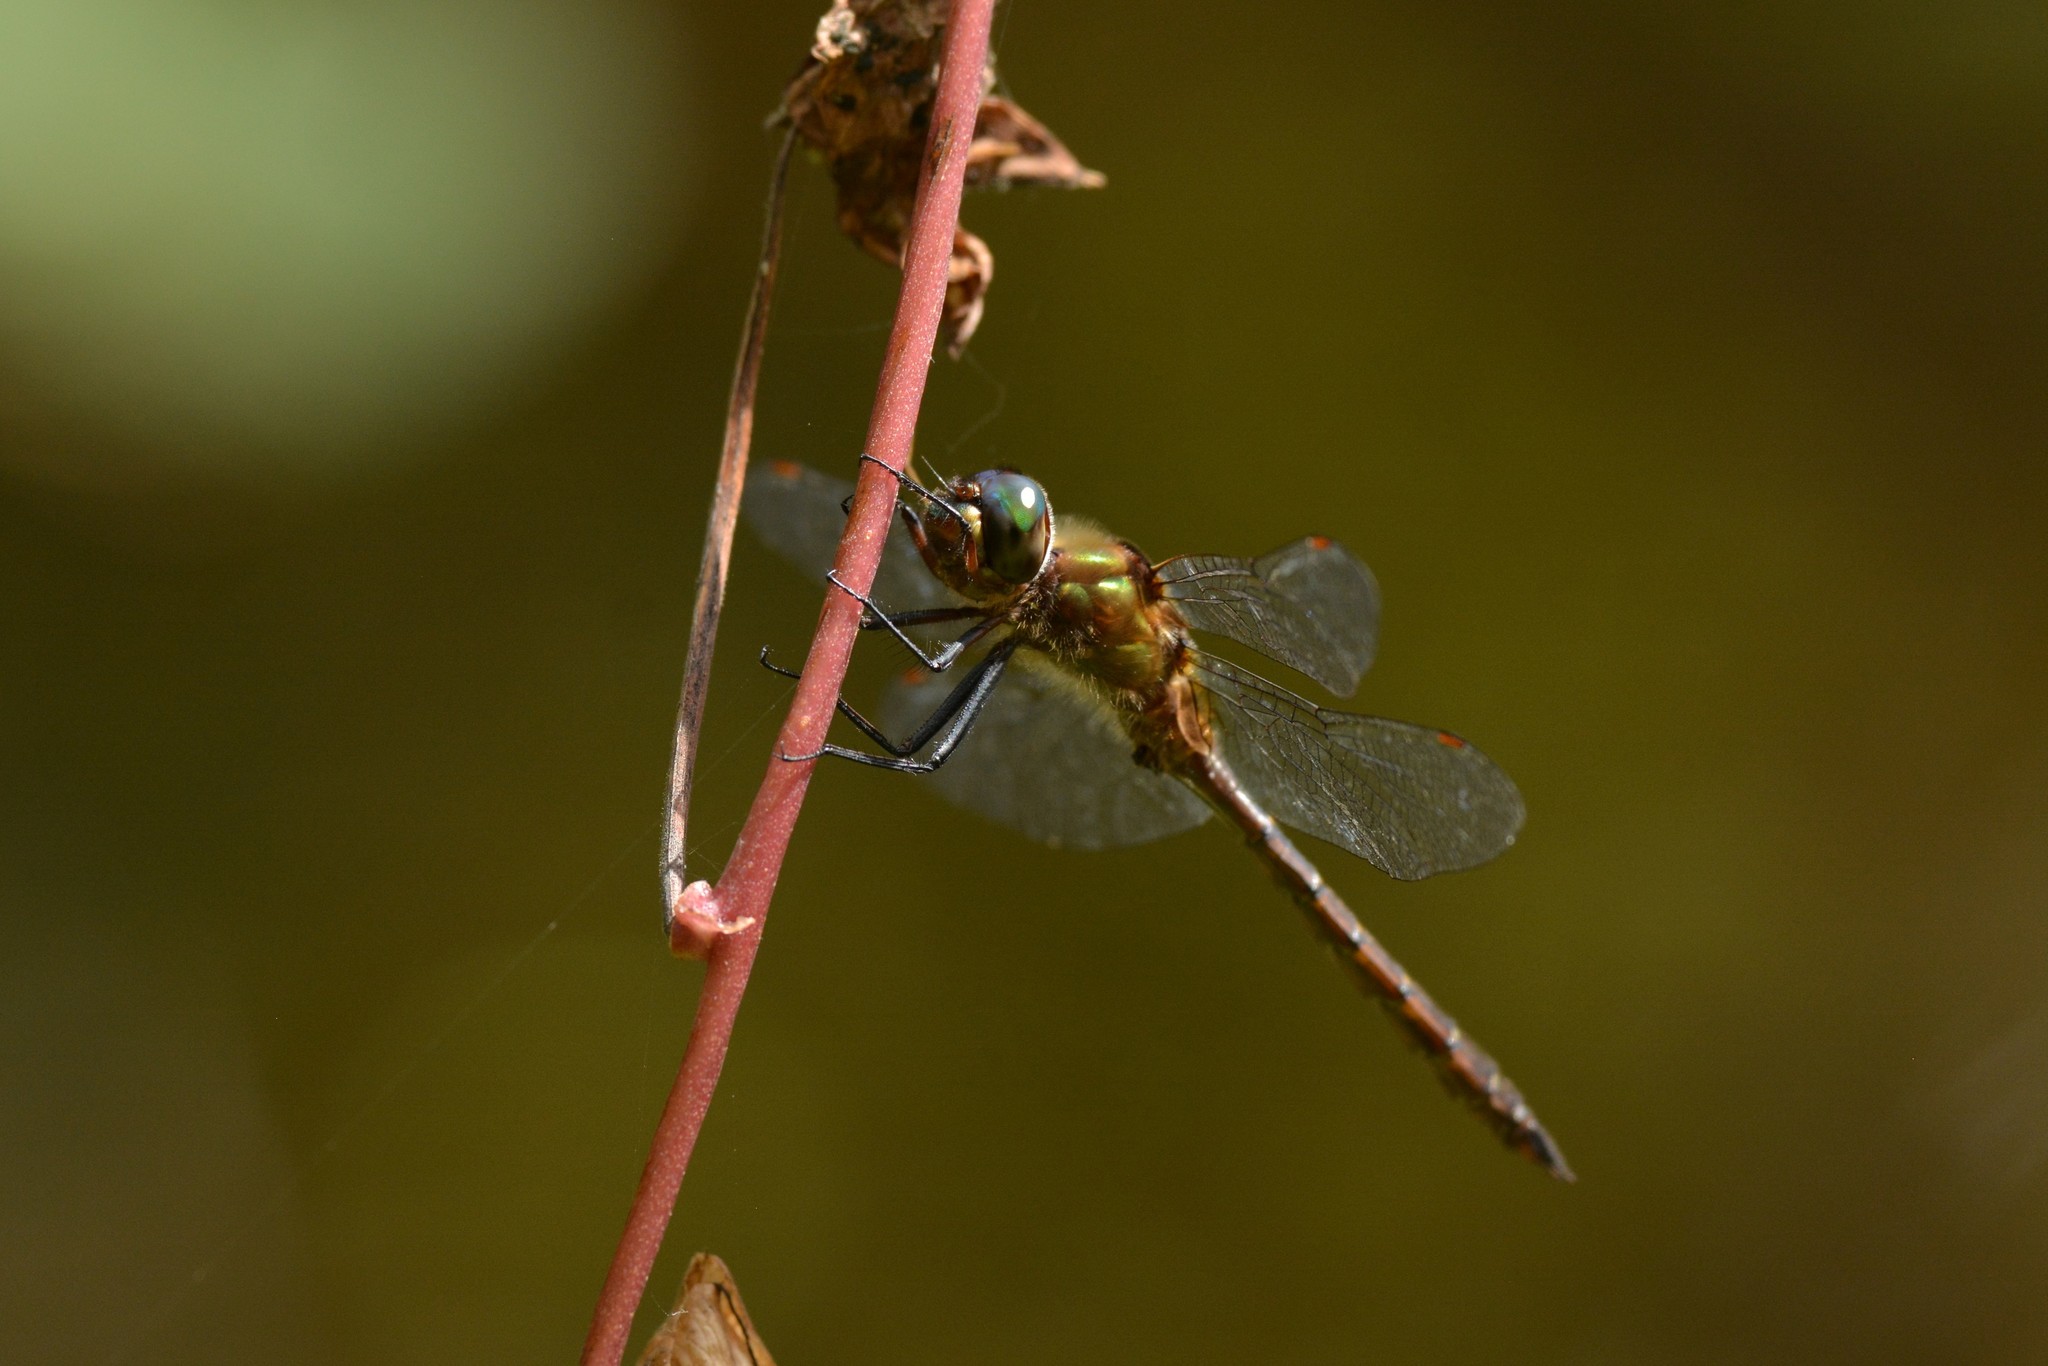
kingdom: Animalia
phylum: Arthropoda
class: Insecta
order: Odonata
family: Corduliidae
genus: Procordulia
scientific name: Procordulia smithii
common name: Ranger dragonfly
